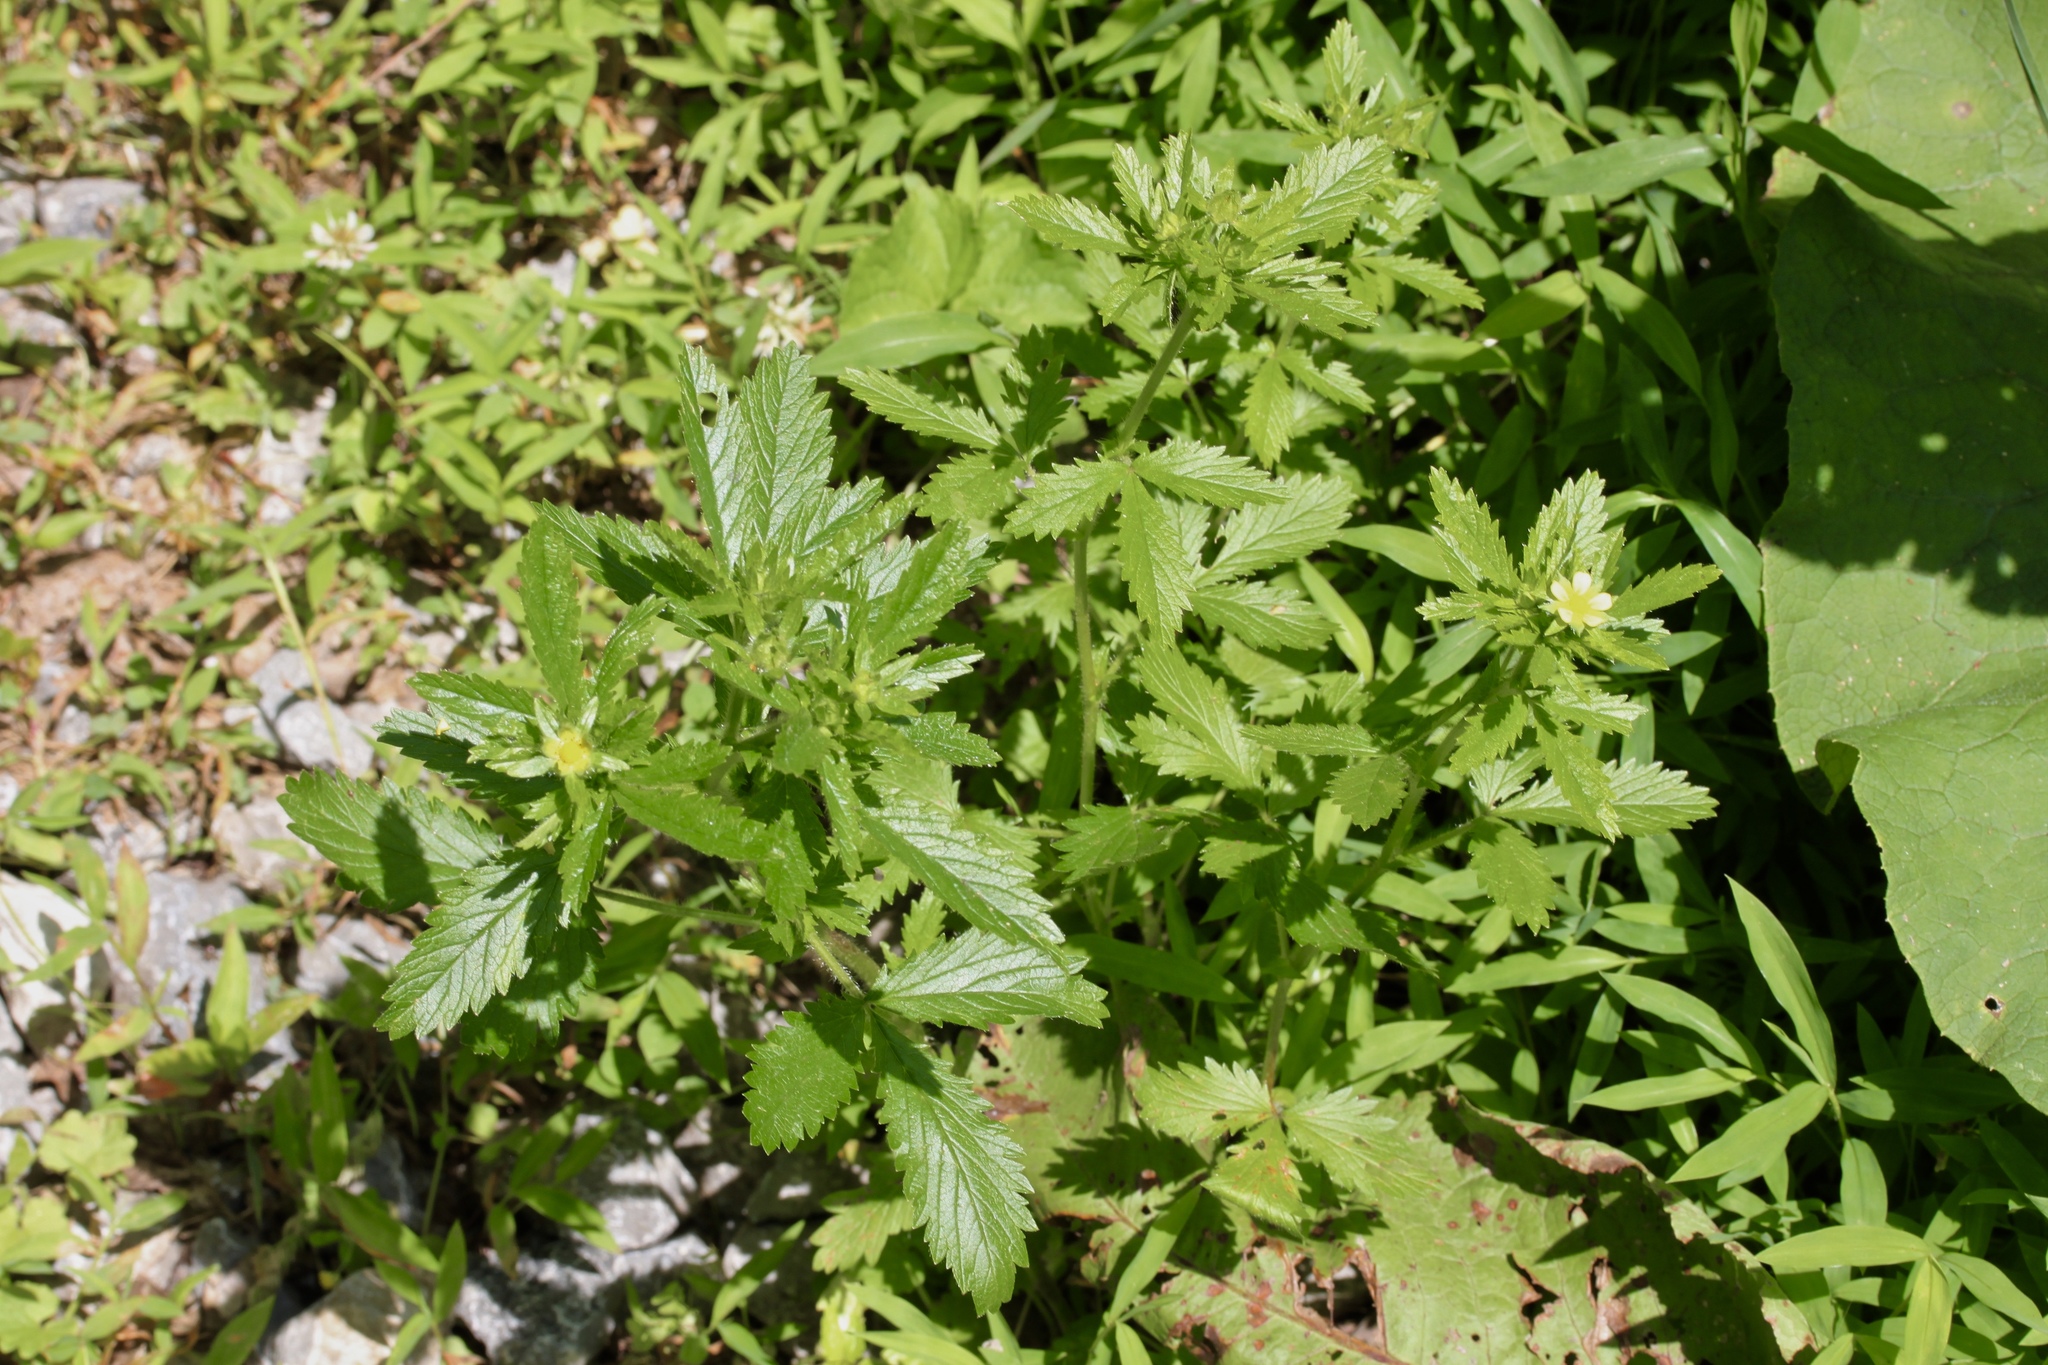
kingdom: Plantae
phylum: Tracheophyta
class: Magnoliopsida
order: Rosales
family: Rosaceae
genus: Potentilla
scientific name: Potentilla norvegica
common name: Ternate-leaved cinquefoil
